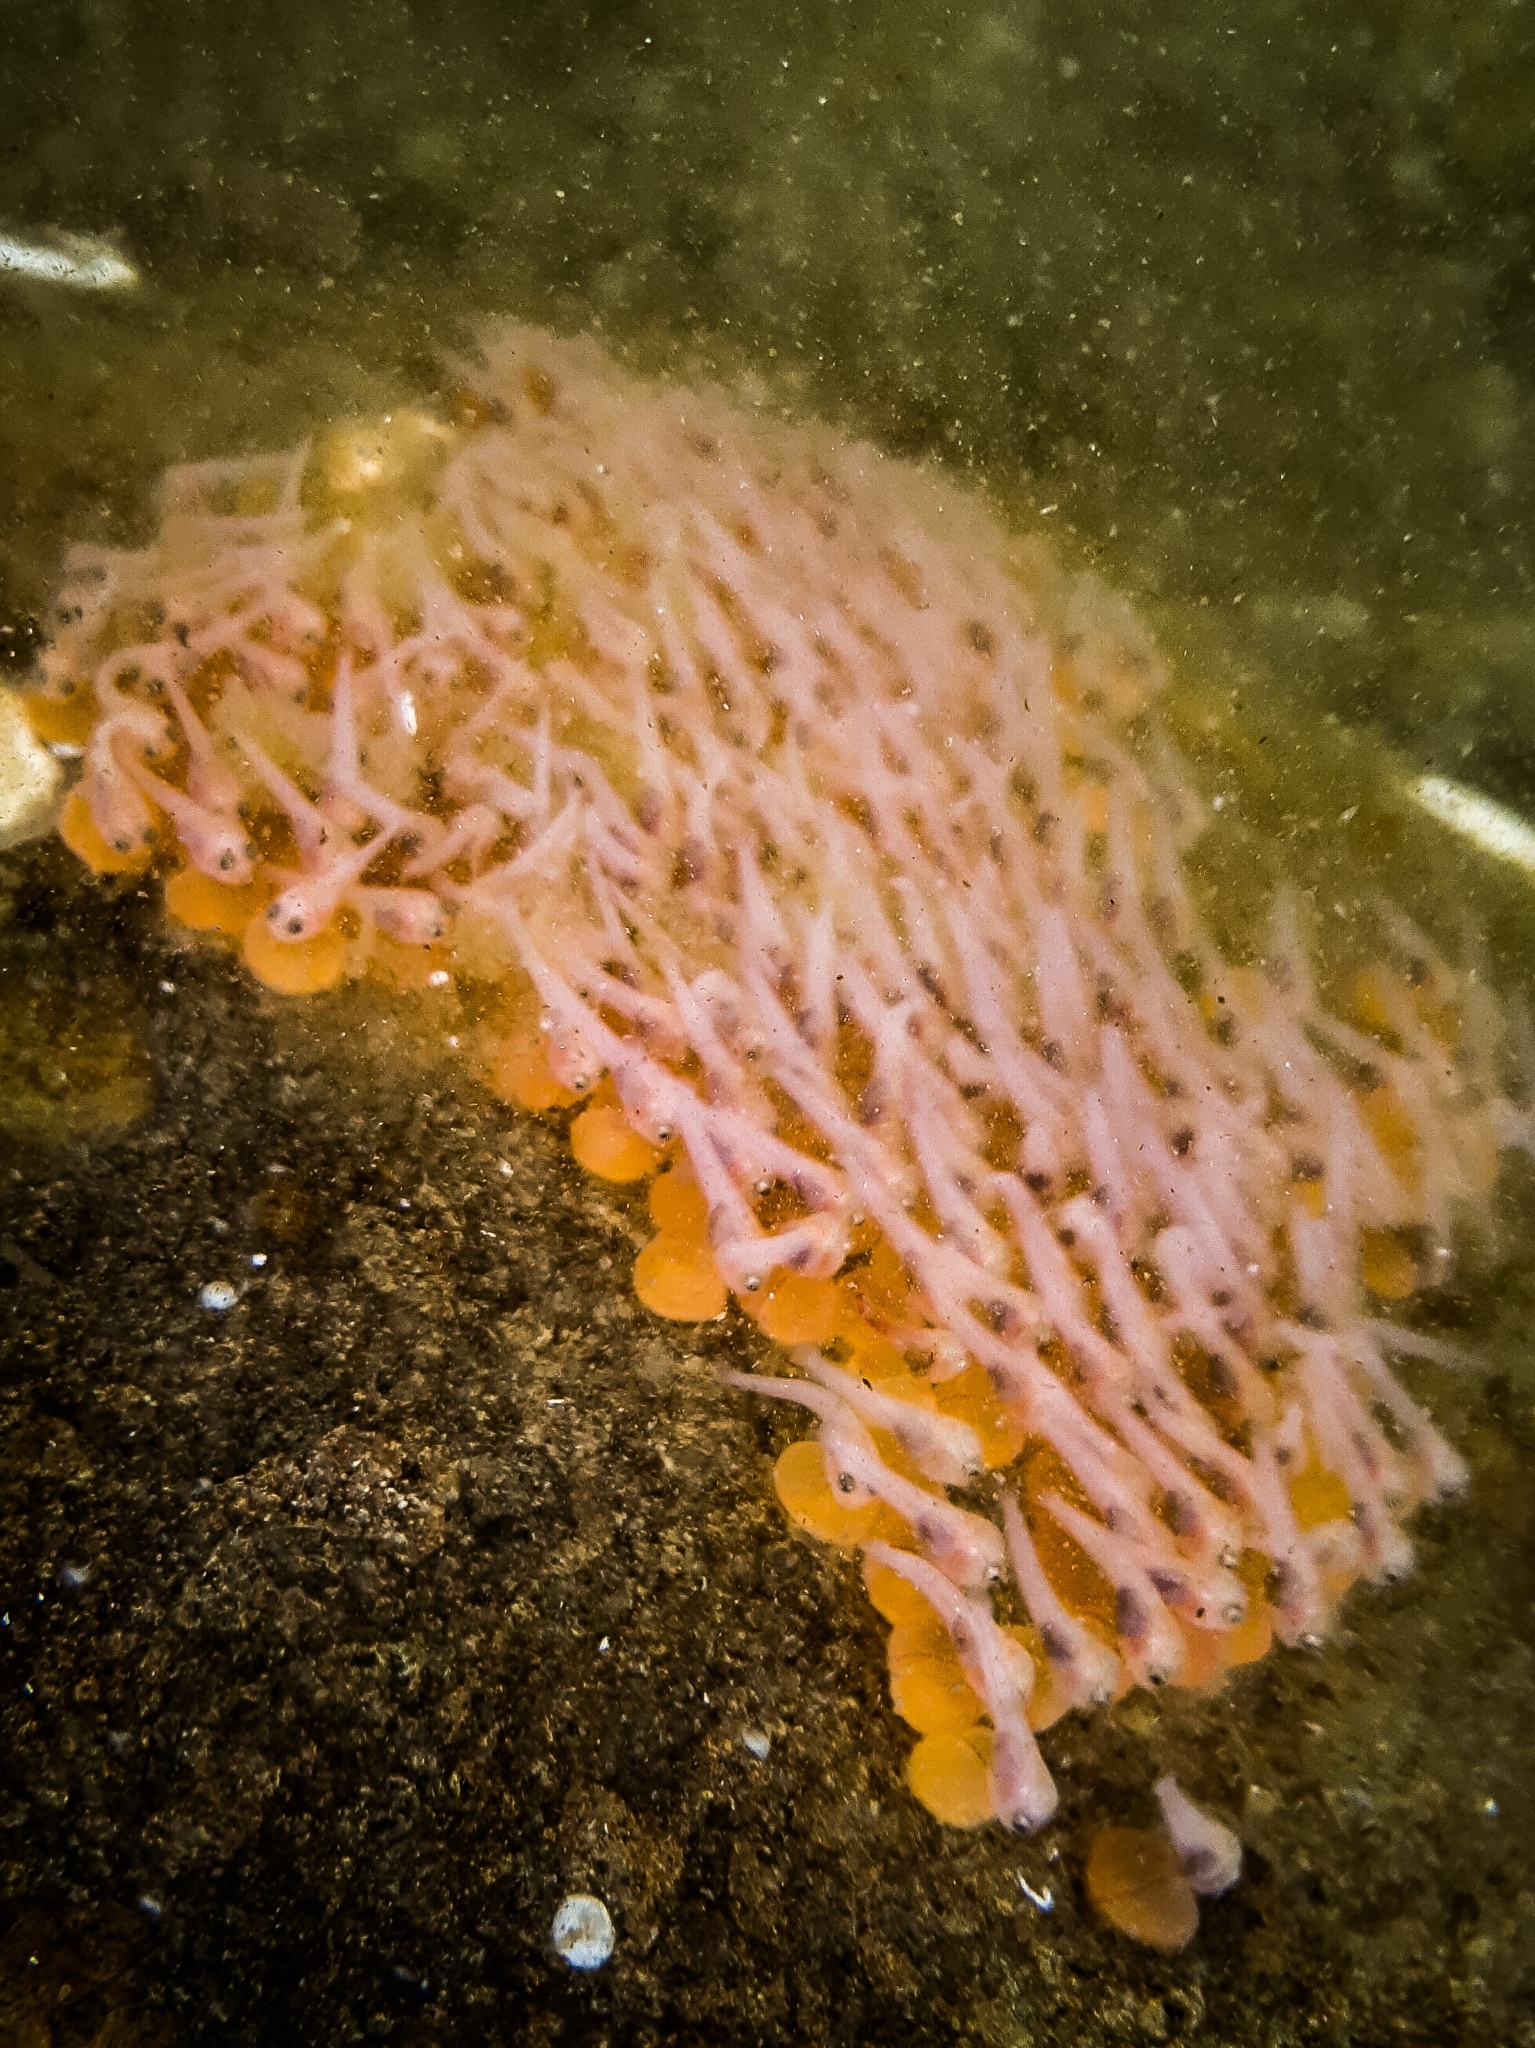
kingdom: Animalia
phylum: Chordata
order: Batrachoidiformes
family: Batrachoididae
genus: Porichthys
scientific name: Porichthys notatus
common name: Plainfin midshipman
